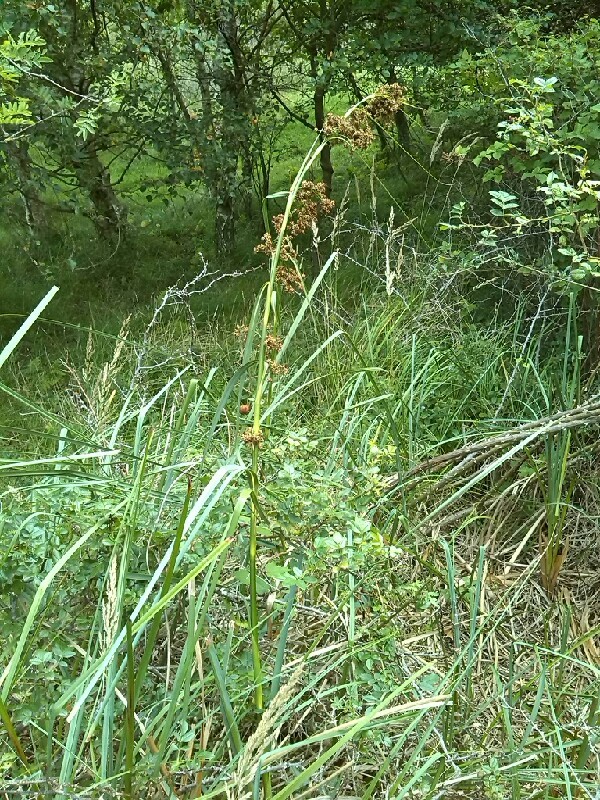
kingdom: Plantae
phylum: Tracheophyta
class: Liliopsida
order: Poales
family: Cyperaceae
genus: Cladium
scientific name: Cladium mariscus
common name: Great fen-sedge
